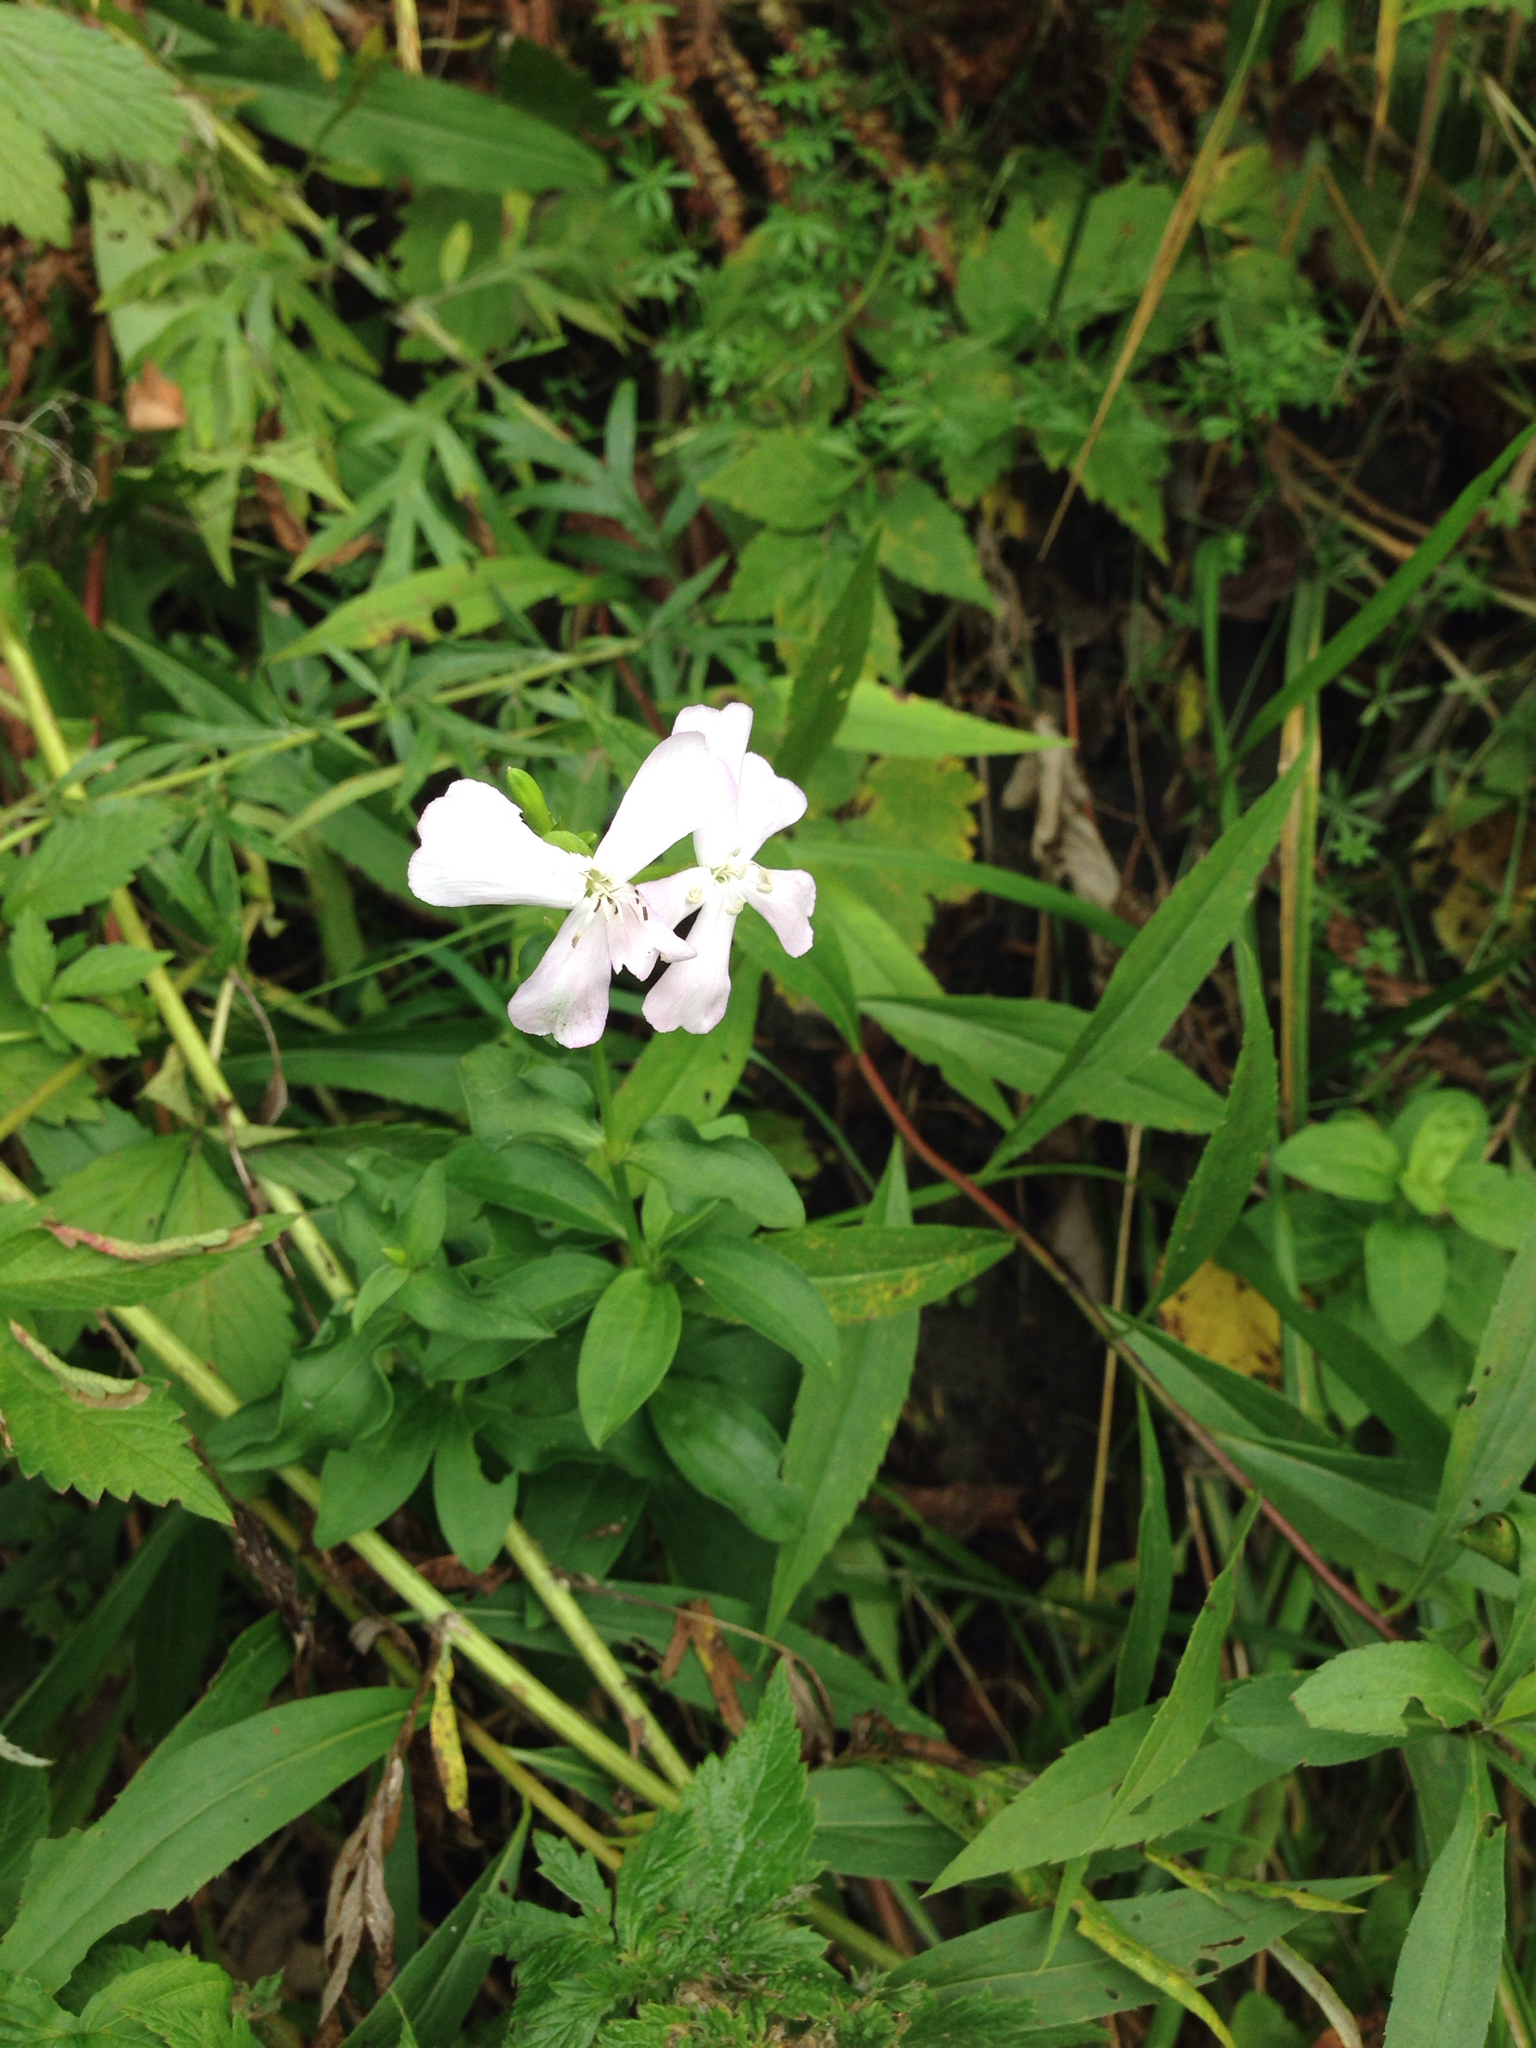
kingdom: Plantae
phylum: Tracheophyta
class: Magnoliopsida
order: Caryophyllales
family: Caryophyllaceae
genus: Saponaria
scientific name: Saponaria officinalis
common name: Soapwort
